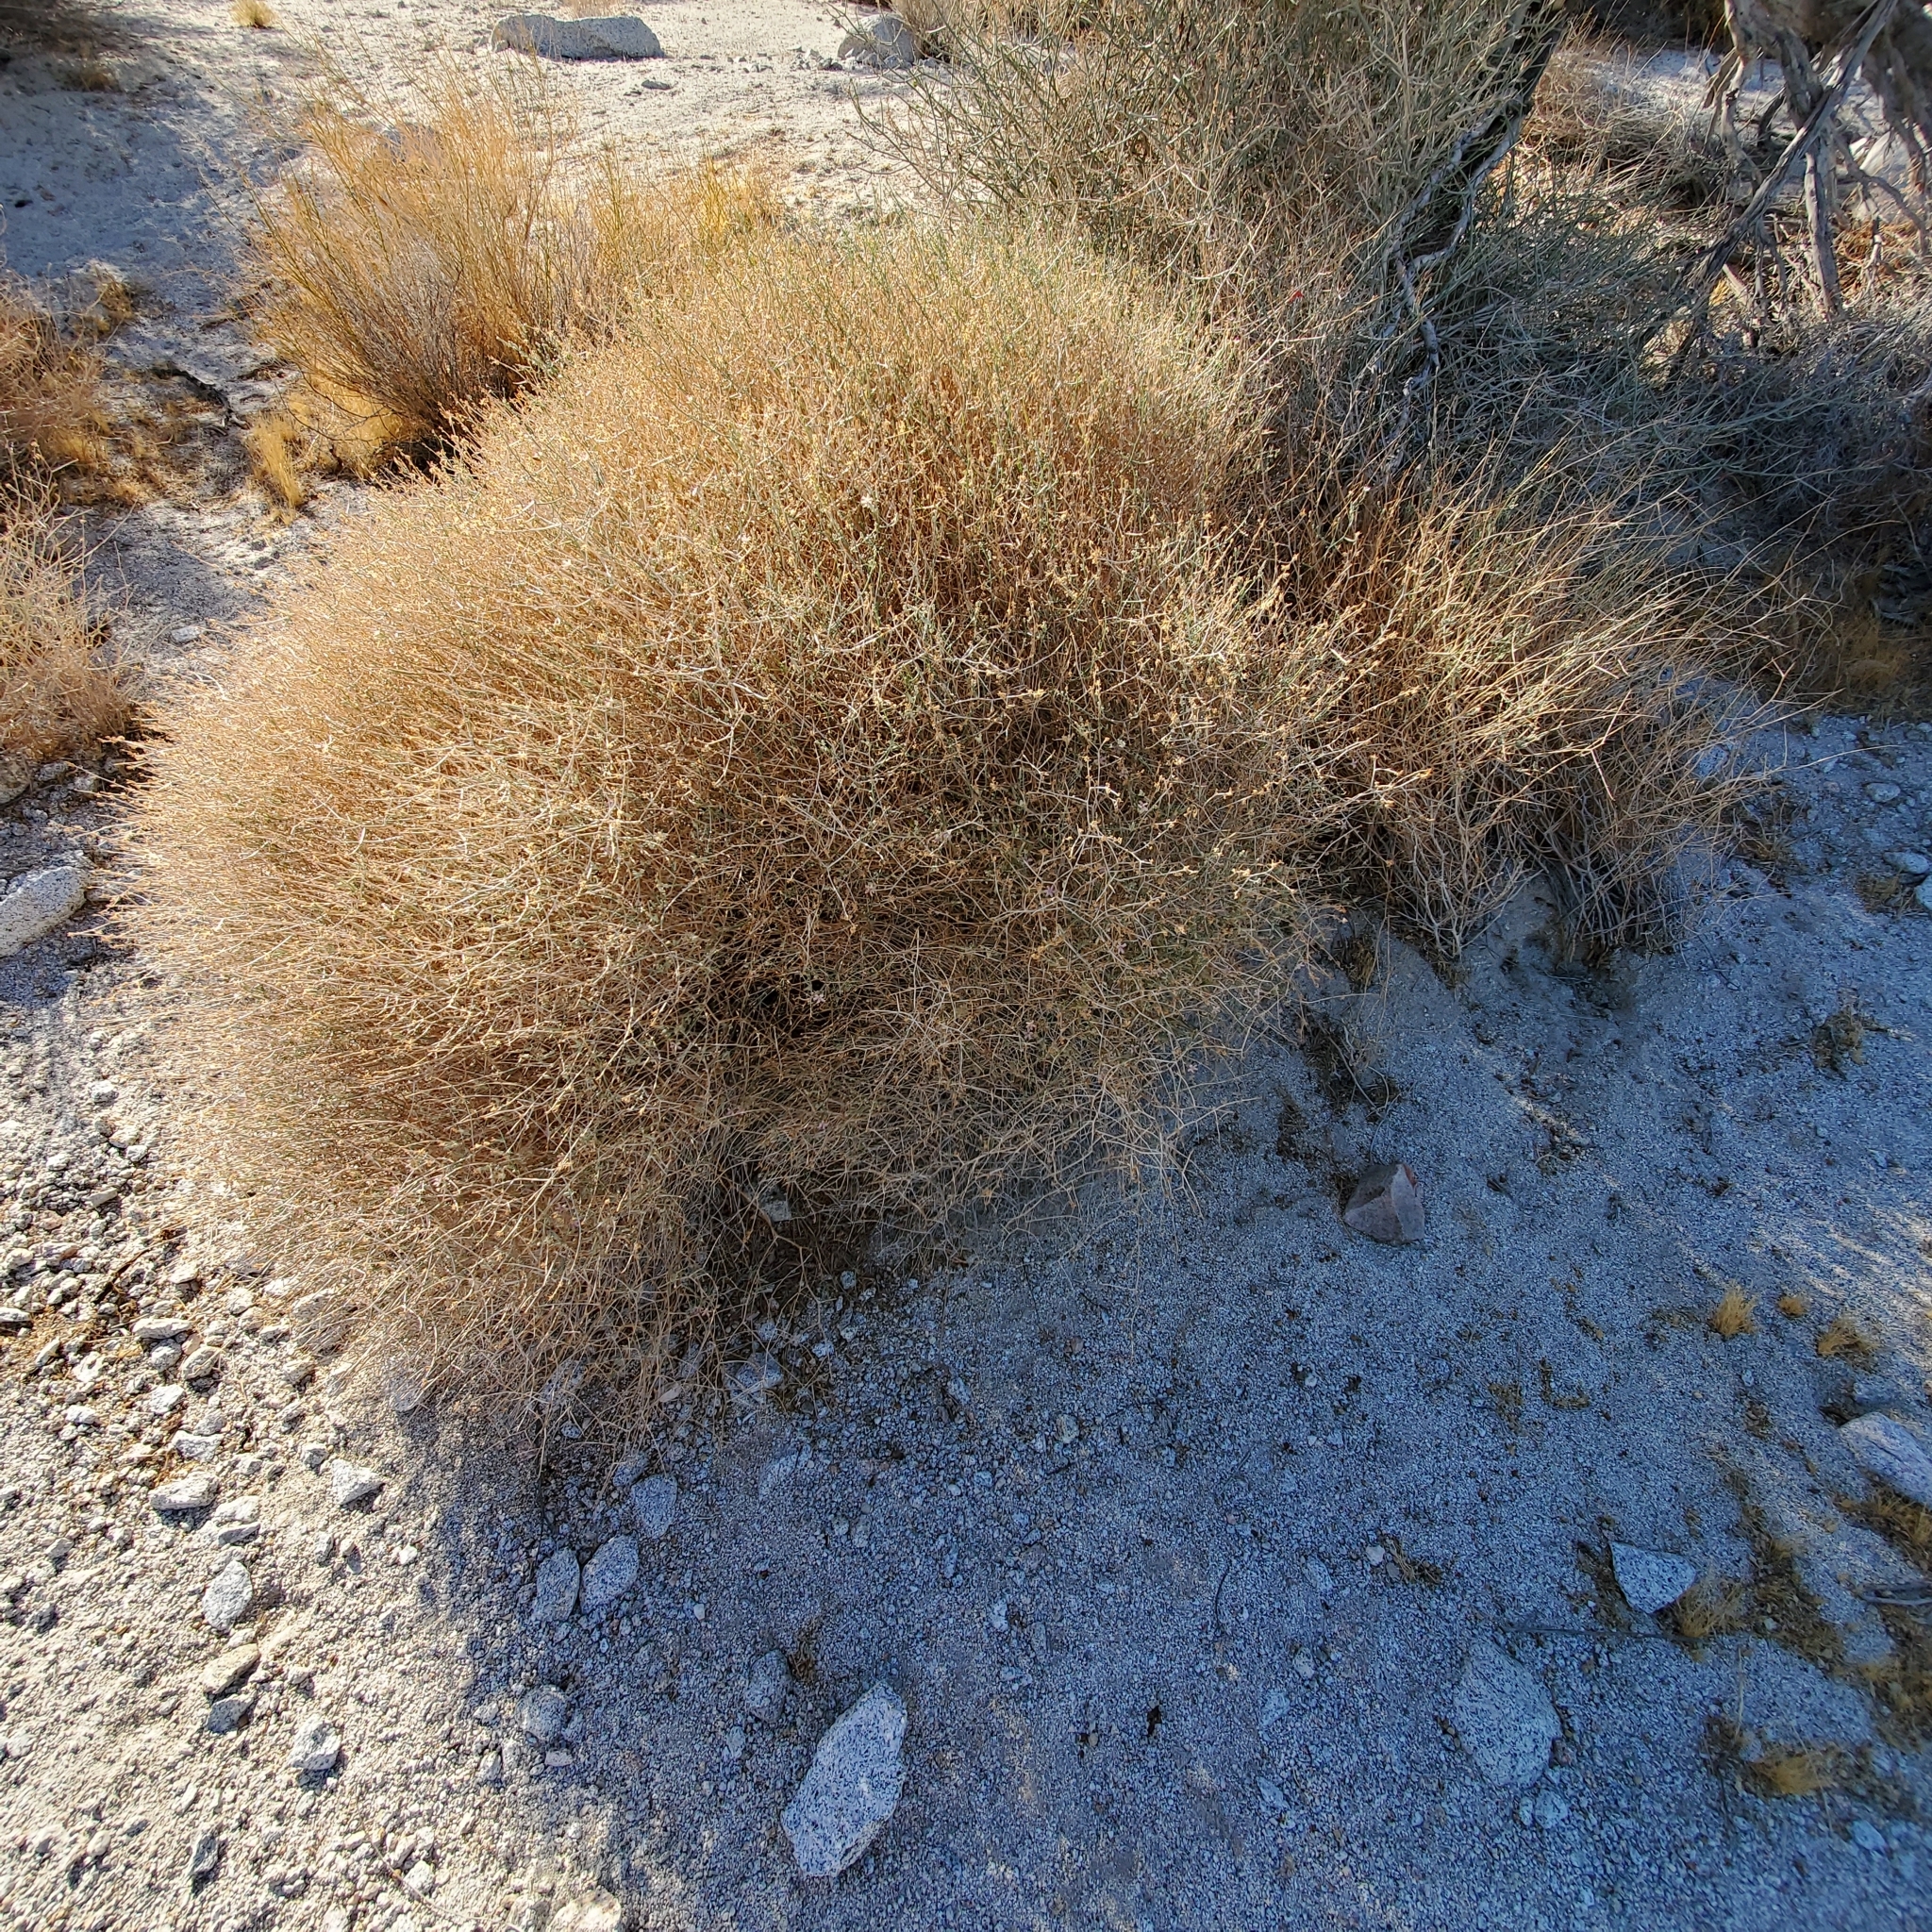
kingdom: Plantae
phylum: Tracheophyta
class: Magnoliopsida
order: Asterales
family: Asteraceae
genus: Stephanomeria
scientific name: Stephanomeria pauciflora
